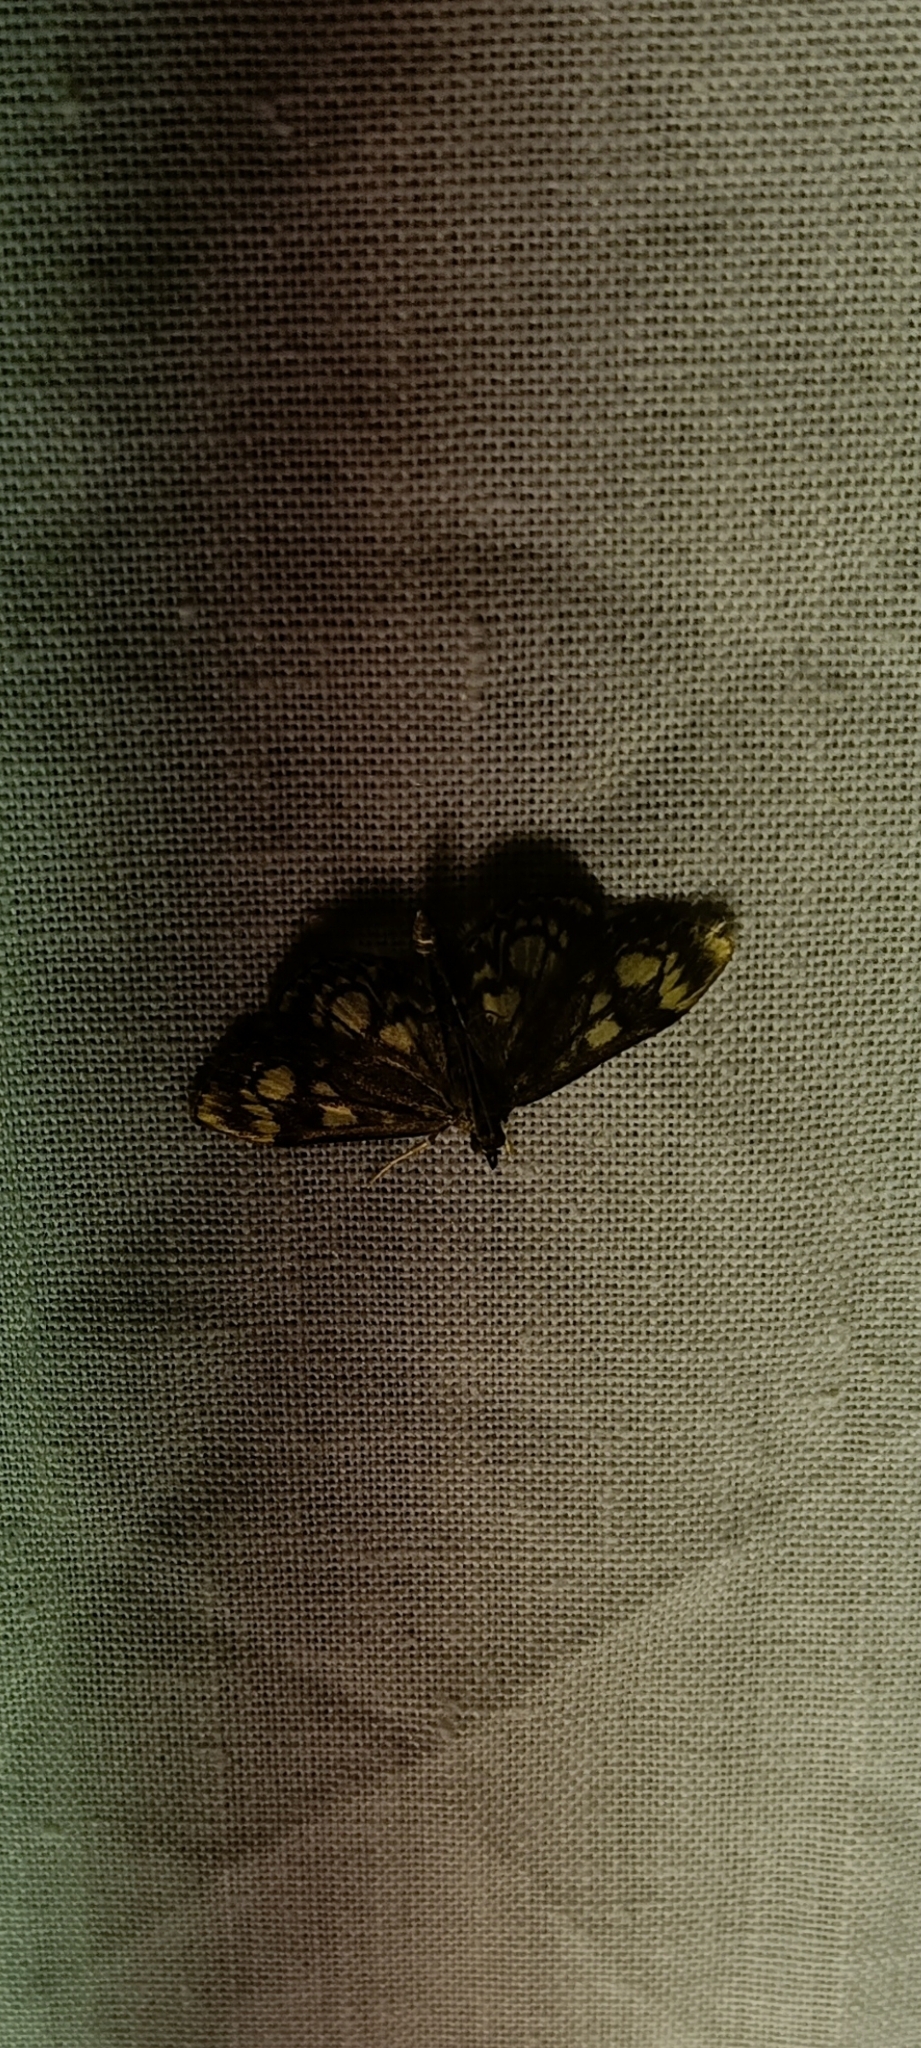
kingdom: Animalia
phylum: Arthropoda
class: Insecta
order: Lepidoptera
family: Crambidae
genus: Anania
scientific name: Anania coronata
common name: Elder pearl
